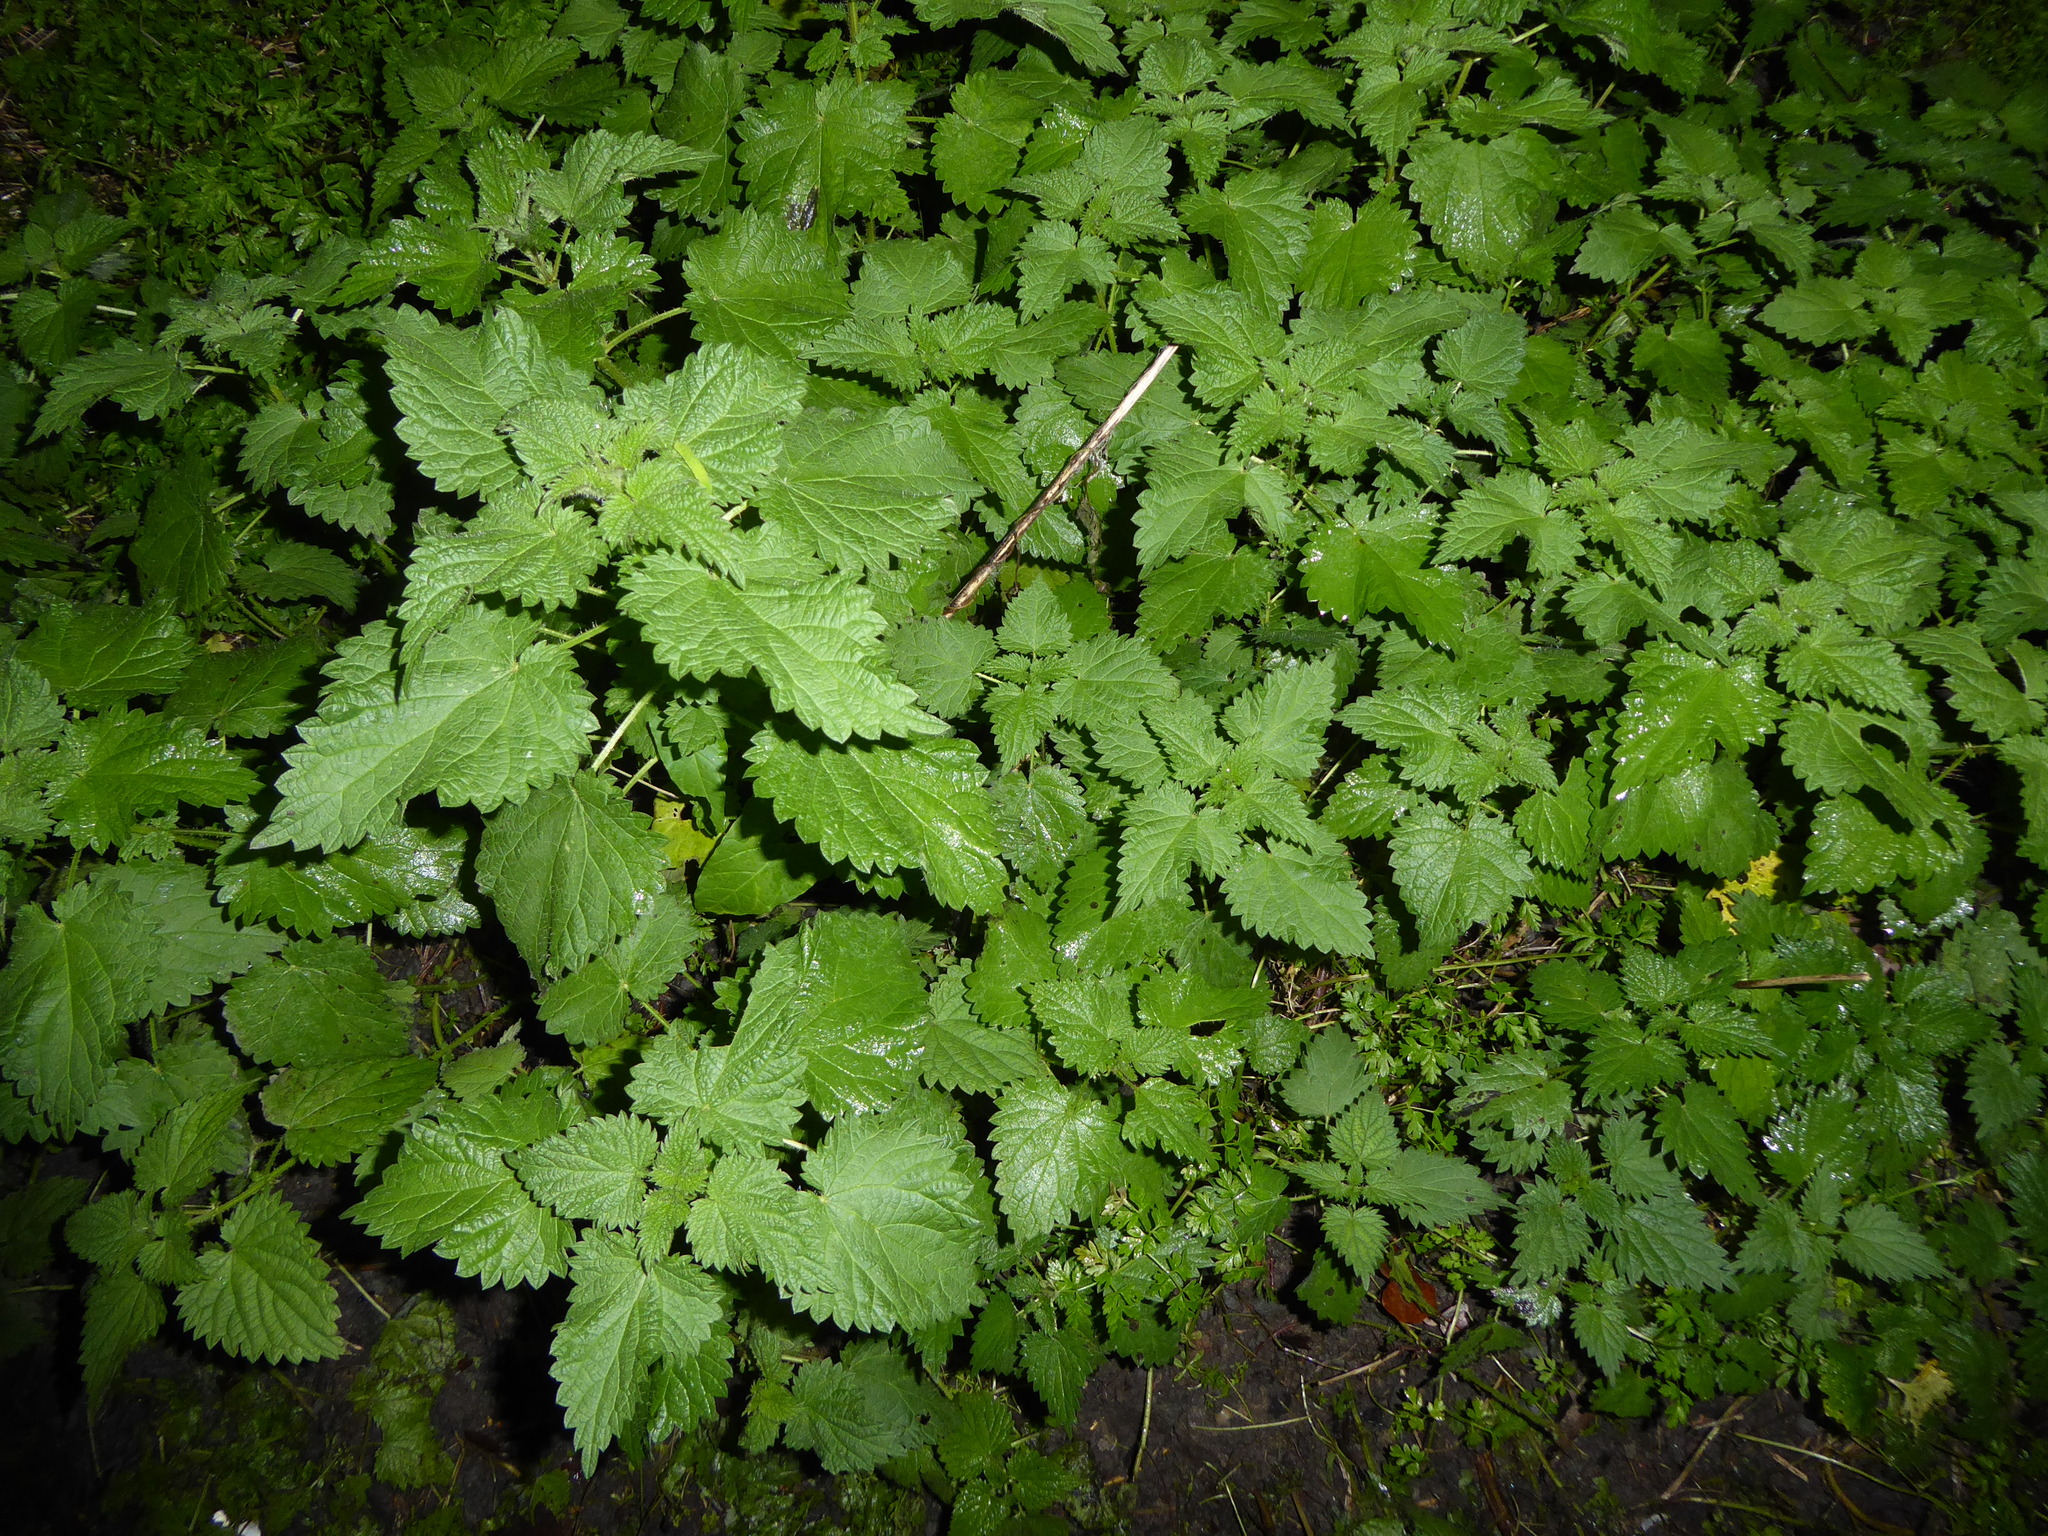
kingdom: Plantae
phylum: Tracheophyta
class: Magnoliopsida
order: Rosales
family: Urticaceae
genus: Urtica
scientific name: Urtica dioica
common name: Common nettle
